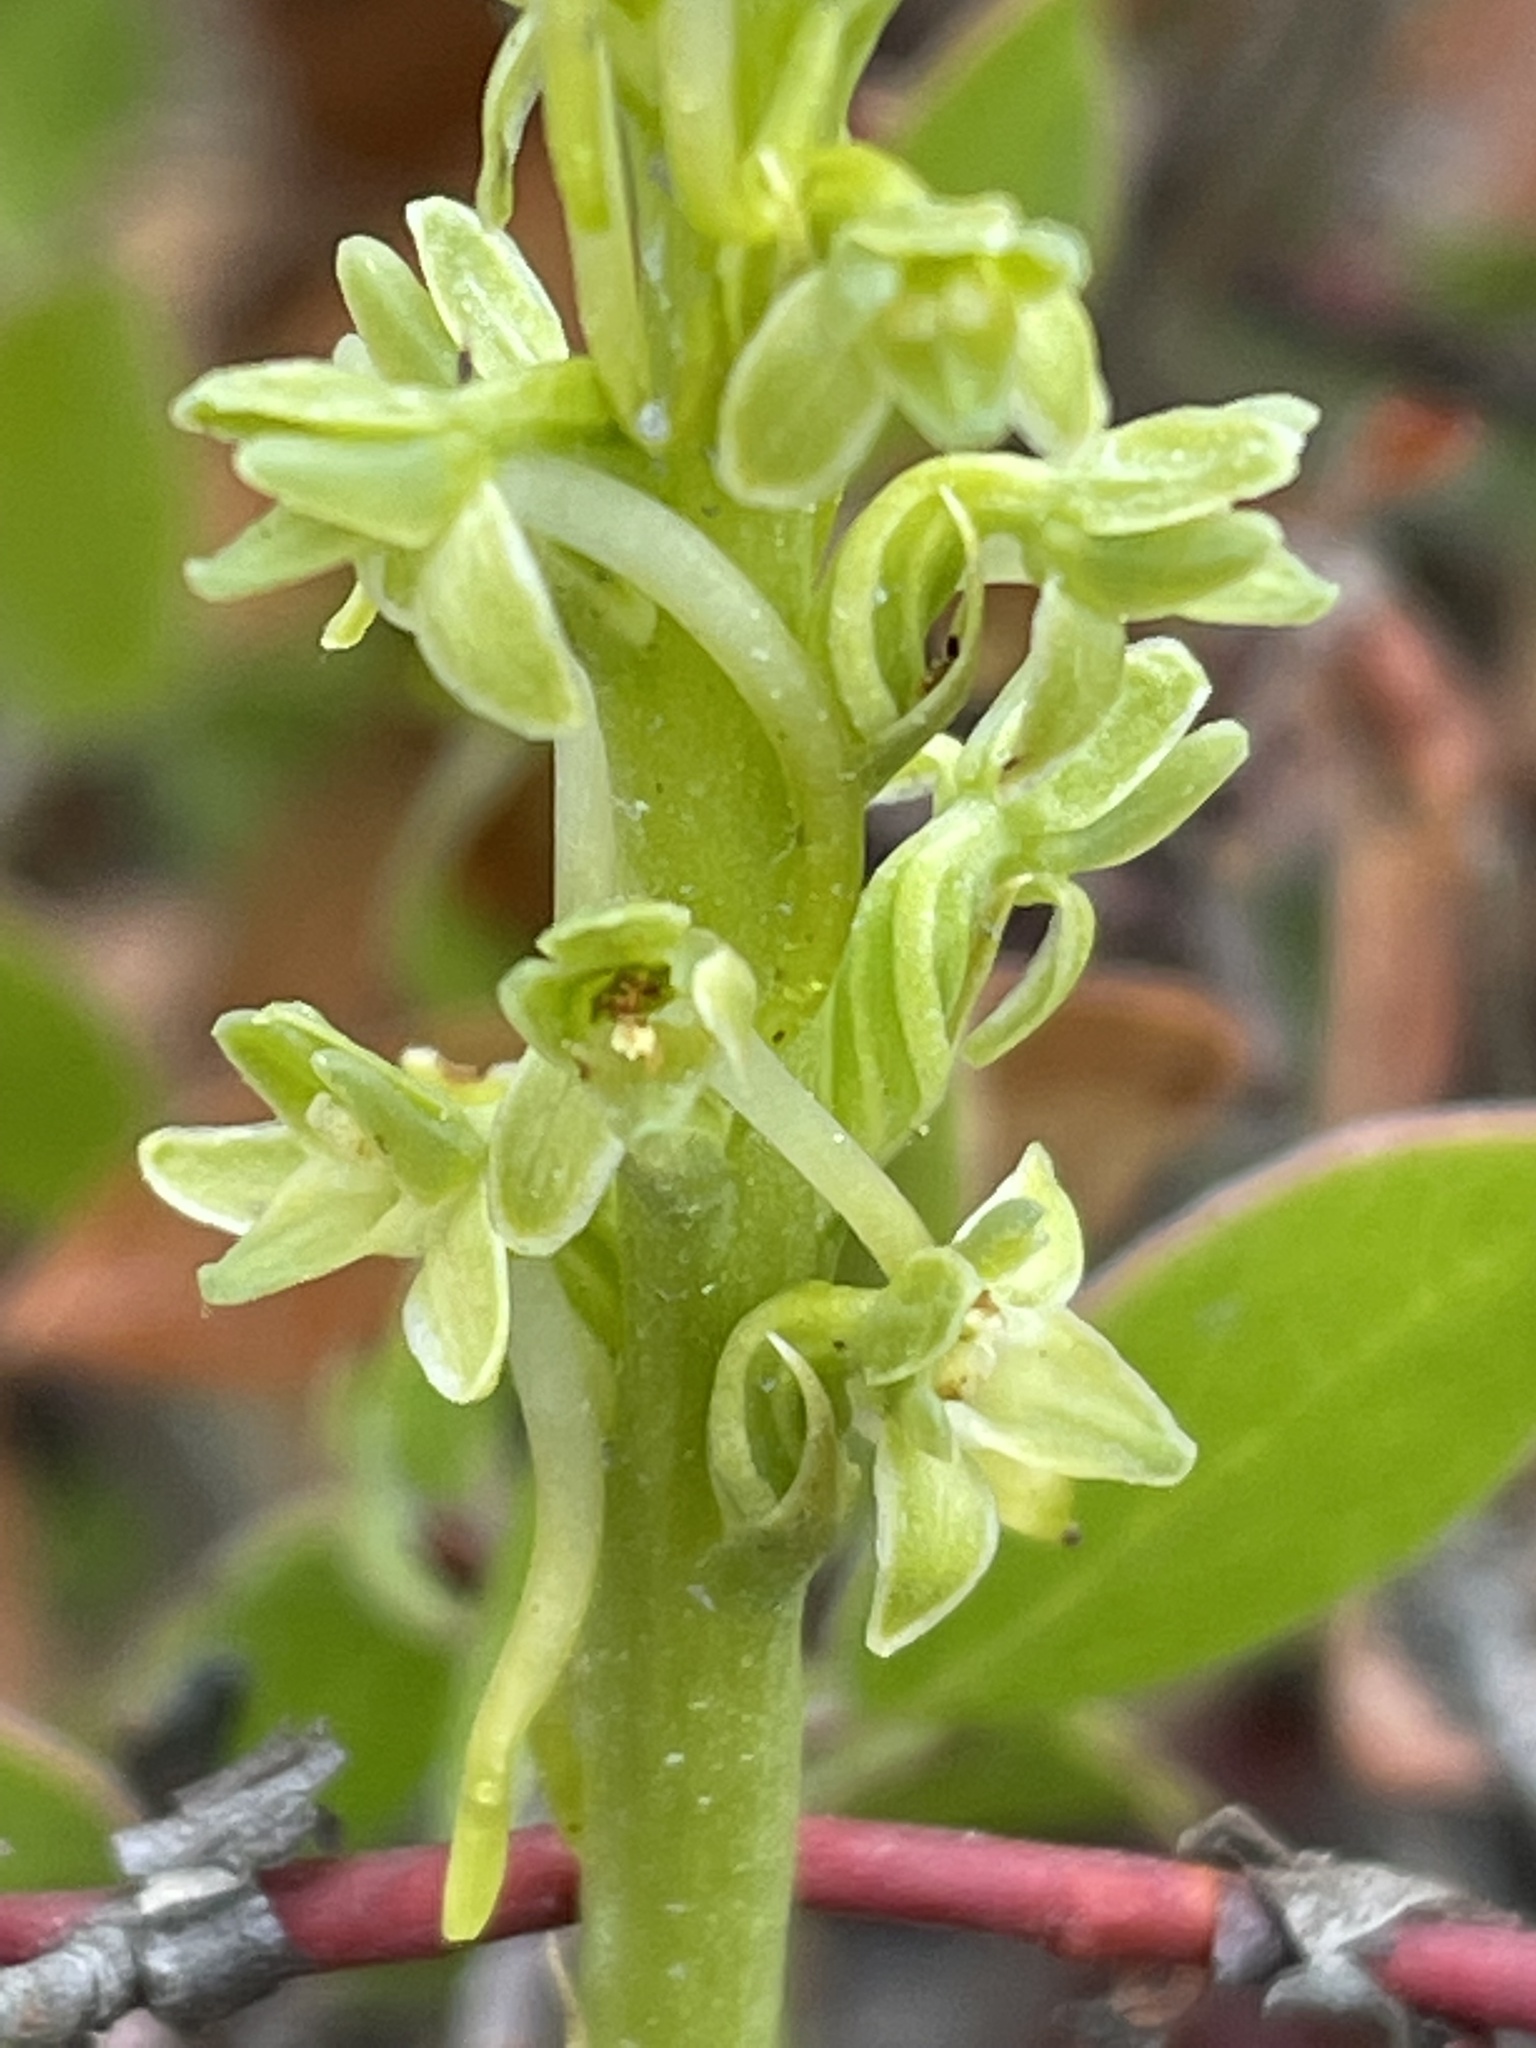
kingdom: Plantae
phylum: Tracheophyta
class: Liliopsida
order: Asparagales
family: Orchidaceae
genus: Platanthera
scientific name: Platanthera michaelii
